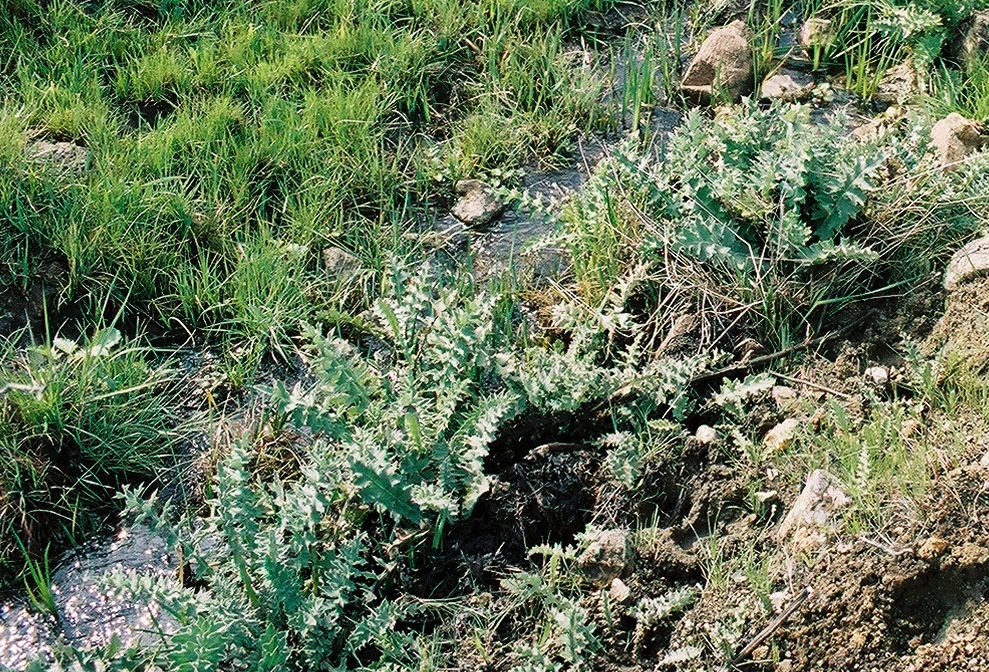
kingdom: Plantae
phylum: Tracheophyta
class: Magnoliopsida
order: Asterales
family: Asteraceae
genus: Cirsium
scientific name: Cirsium fontinale
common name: Fountain thistle
